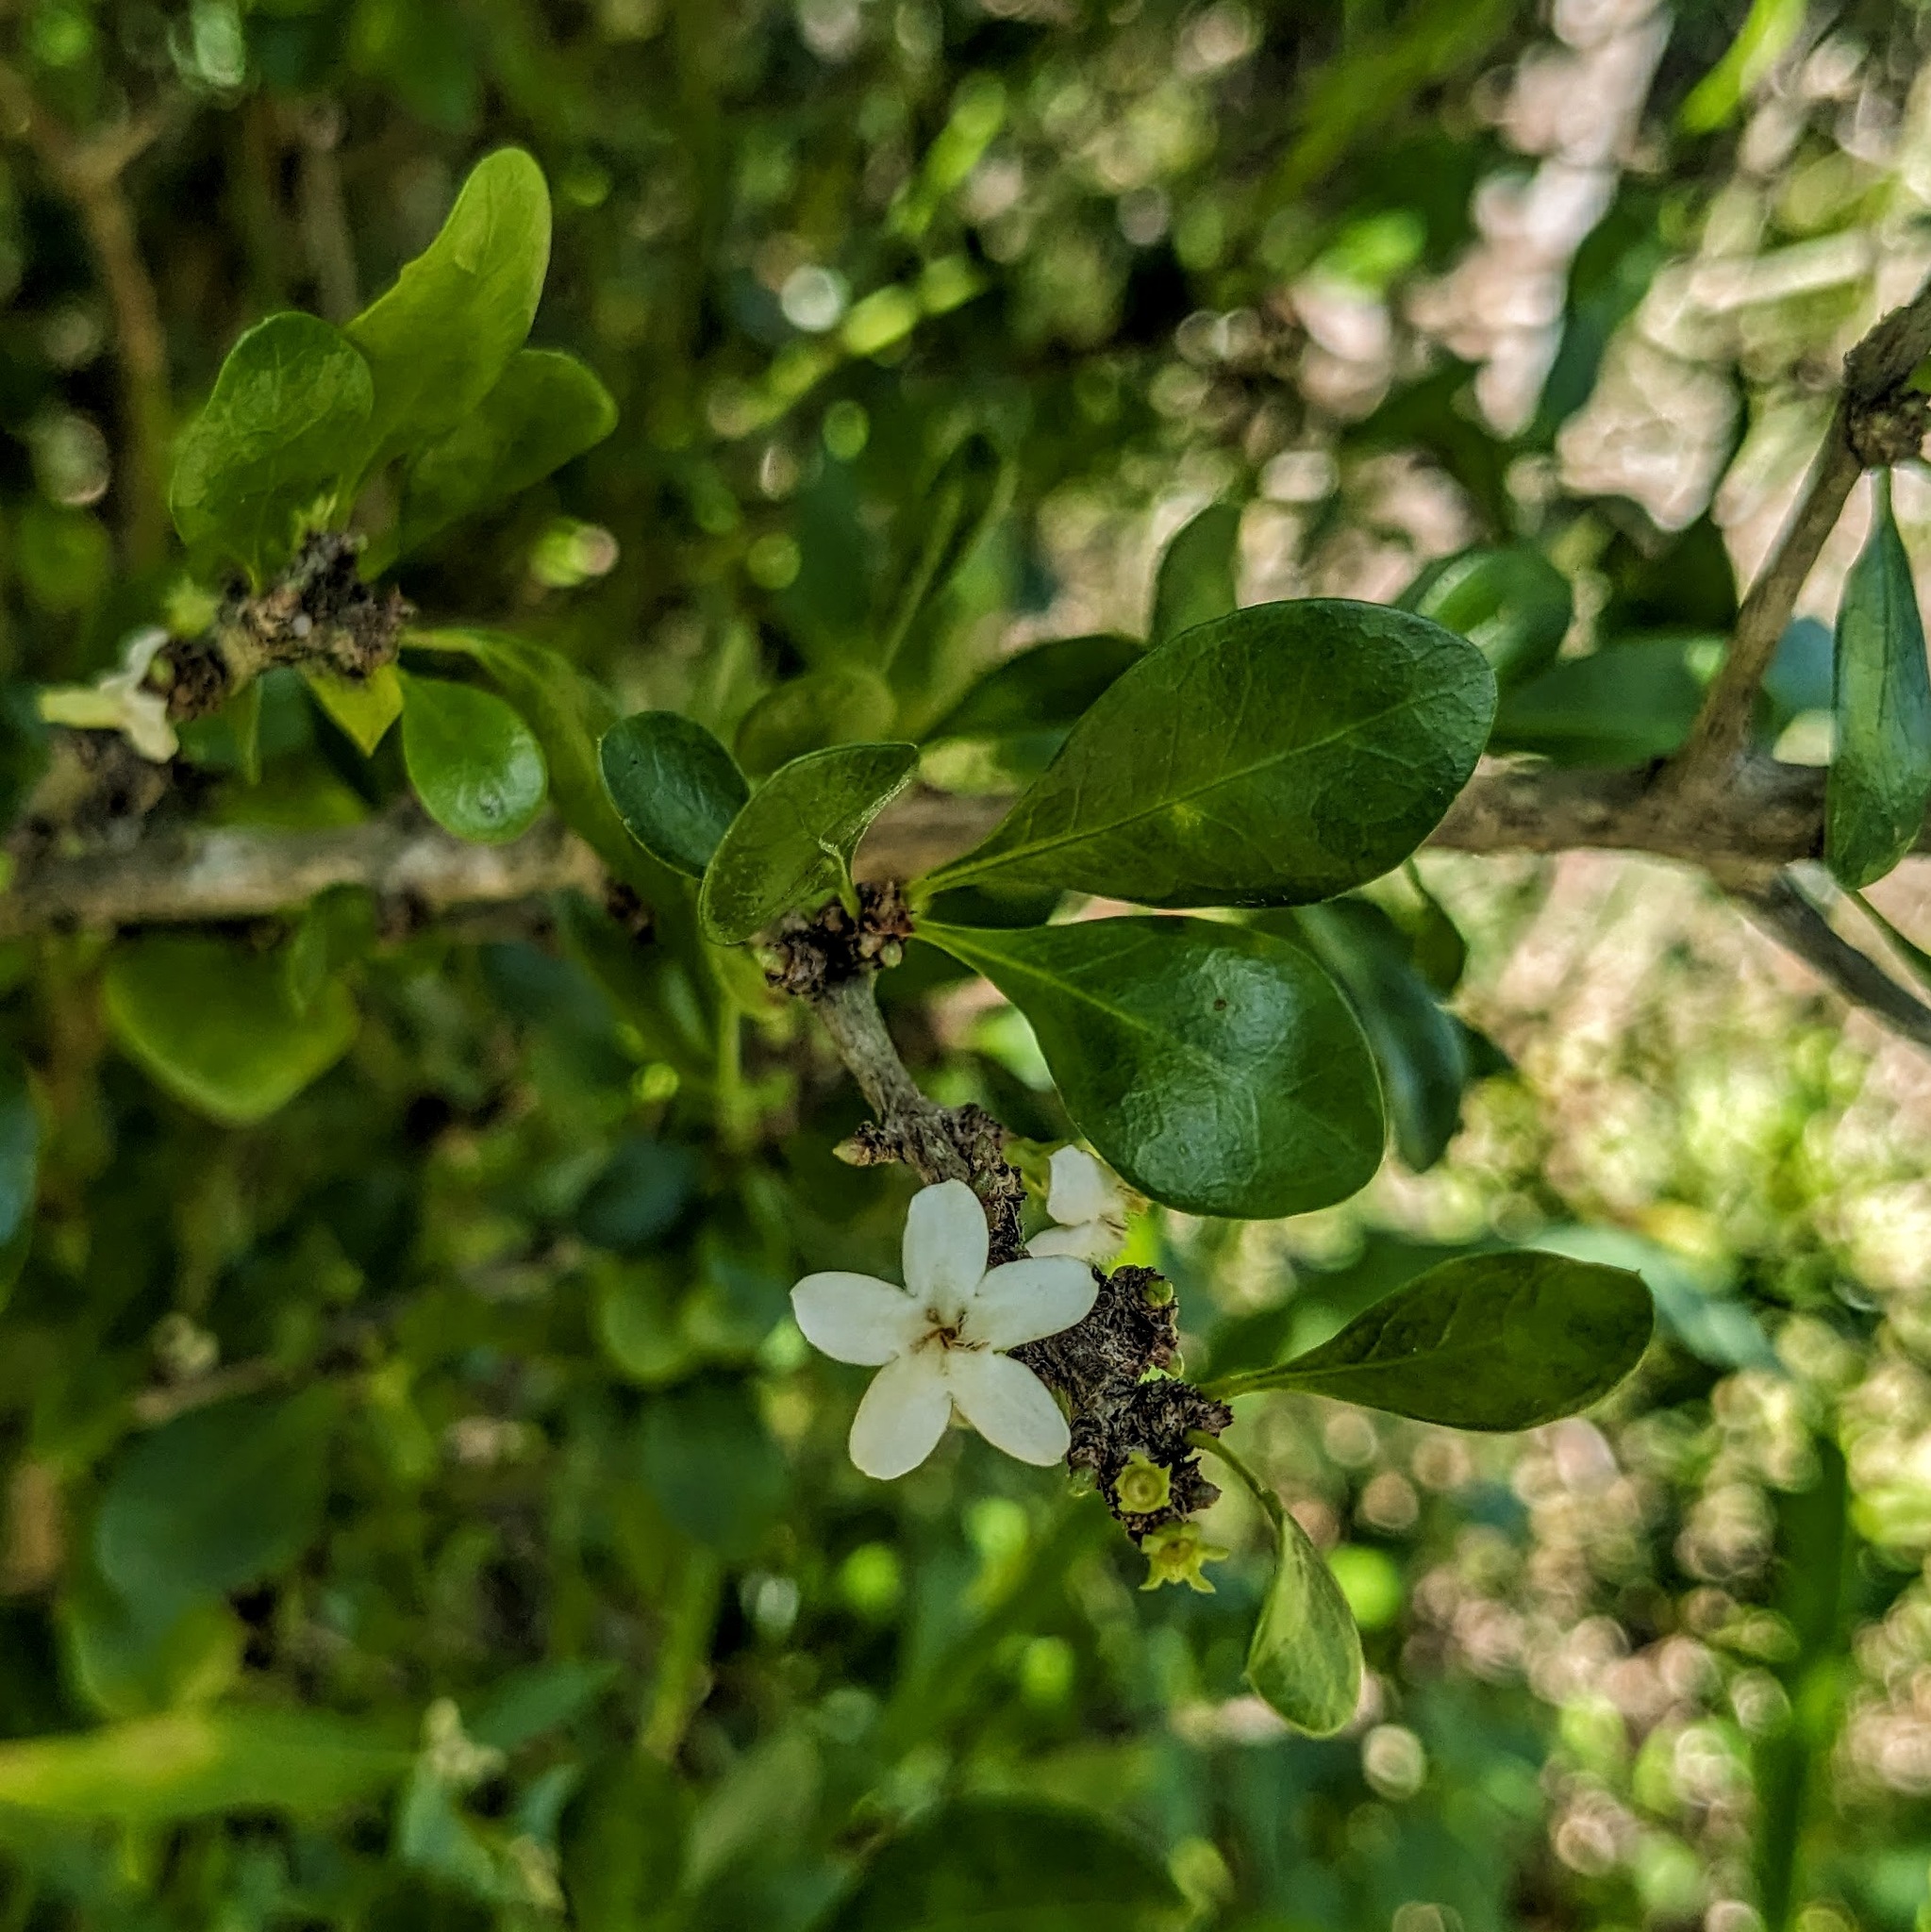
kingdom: Plantae
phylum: Tracheophyta
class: Magnoliopsida
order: Gentianales
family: Rubiaceae
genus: Randia
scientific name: Randia aculeata
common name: Inkberry
